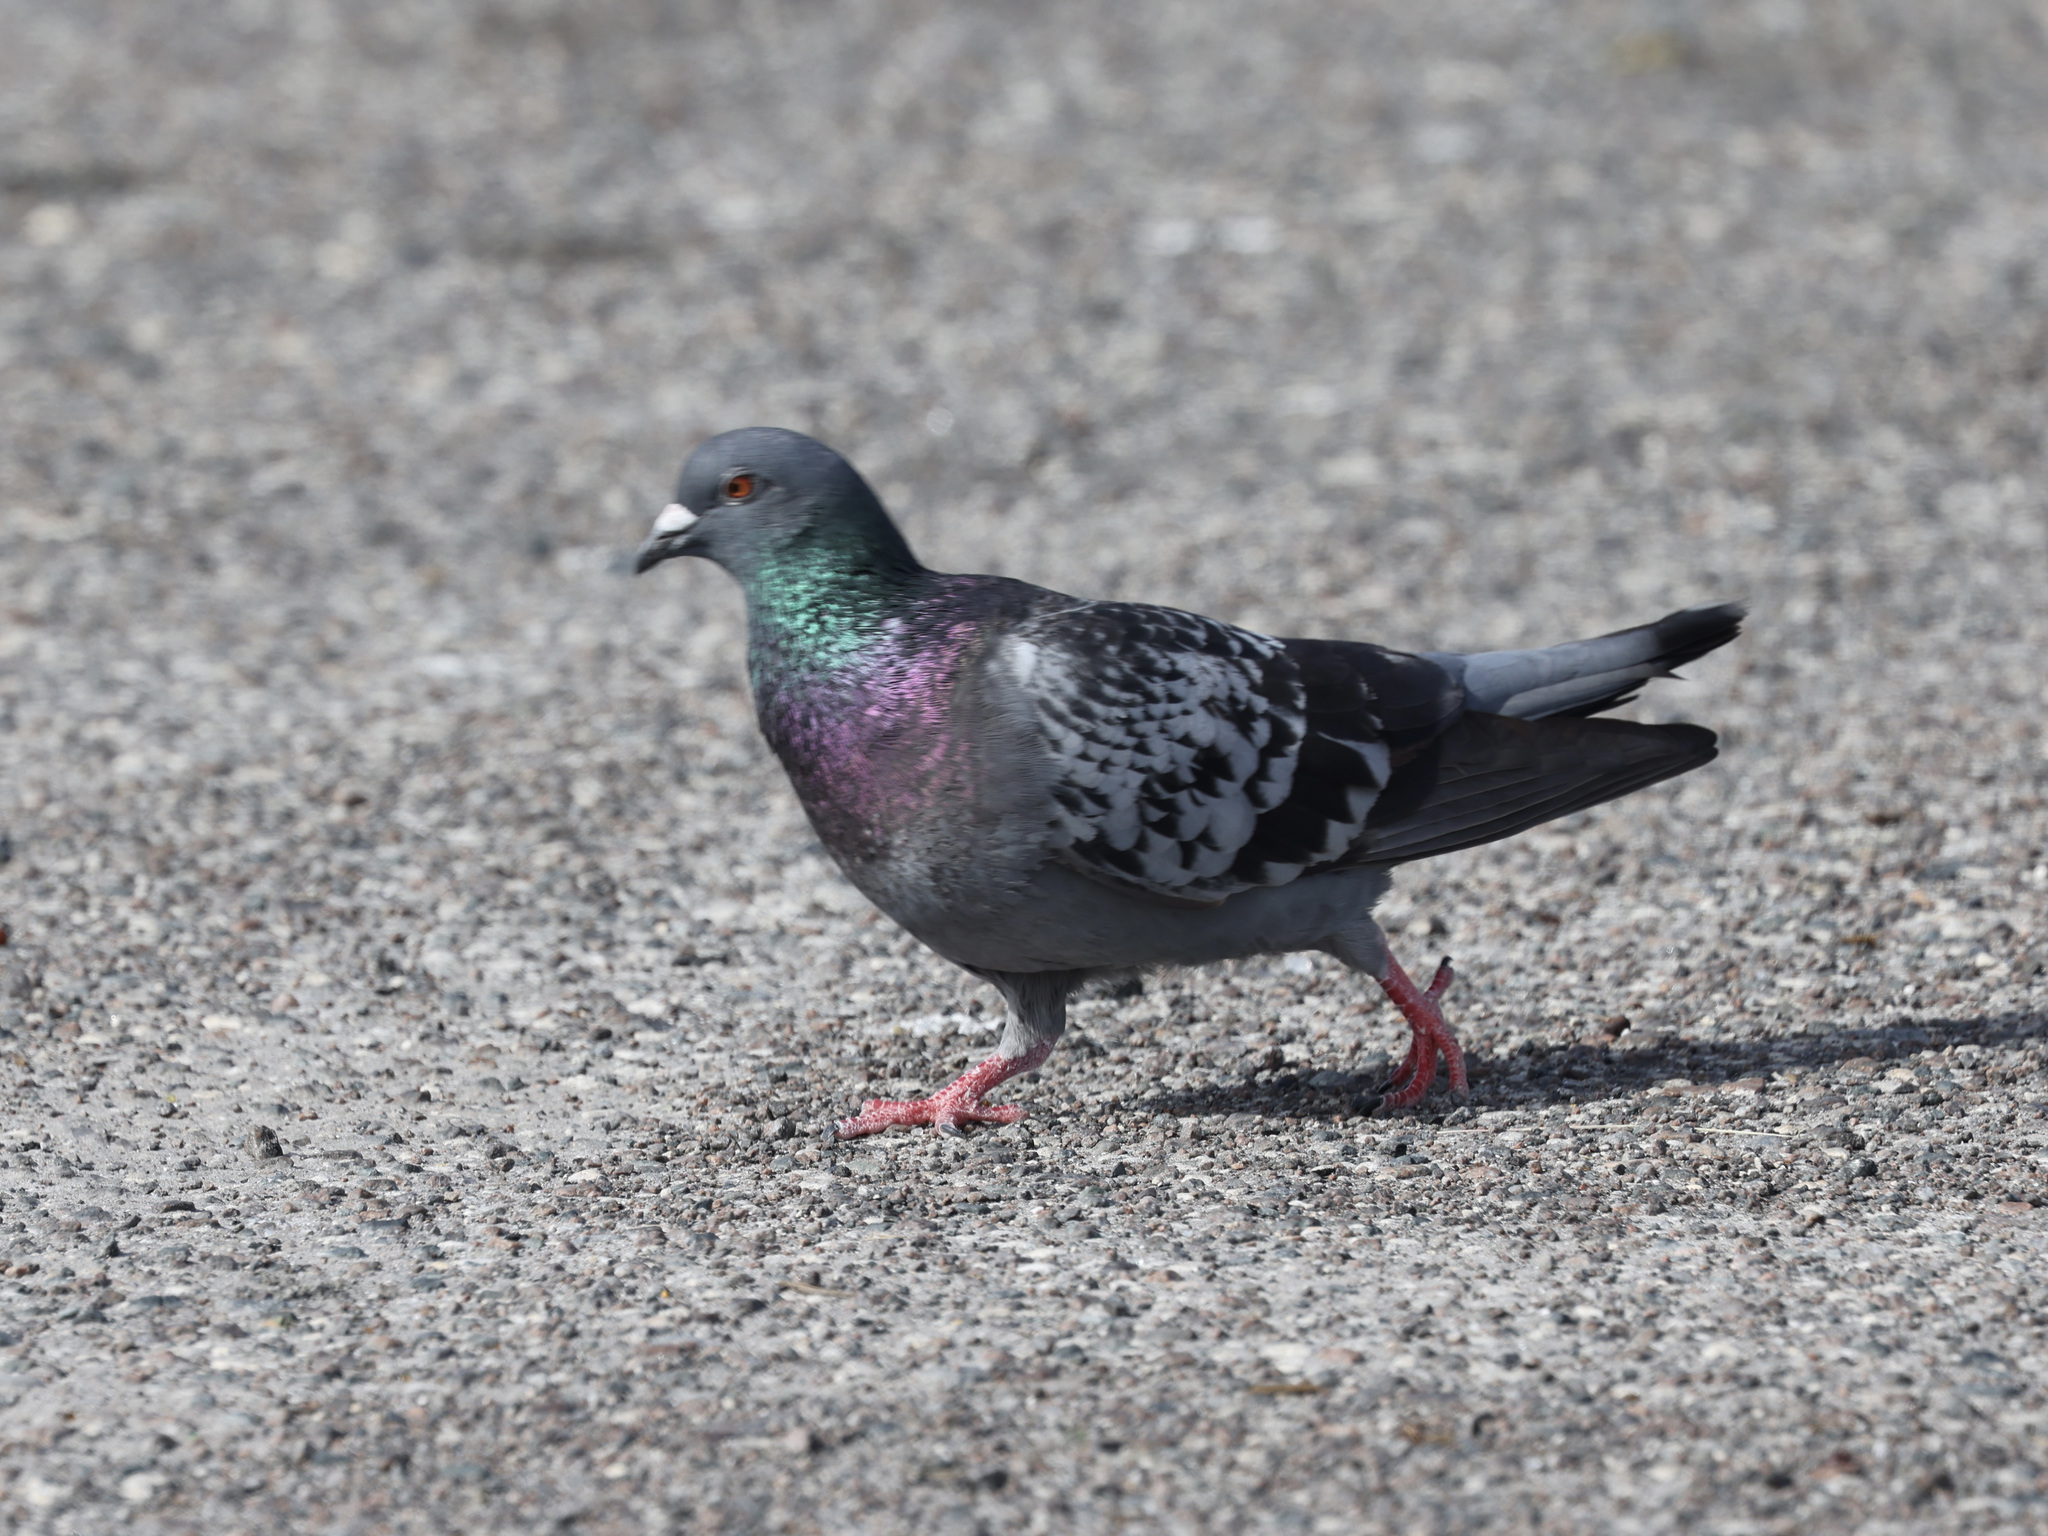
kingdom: Animalia
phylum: Chordata
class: Aves
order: Columbiformes
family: Columbidae
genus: Columba
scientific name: Columba livia
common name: Rock pigeon
